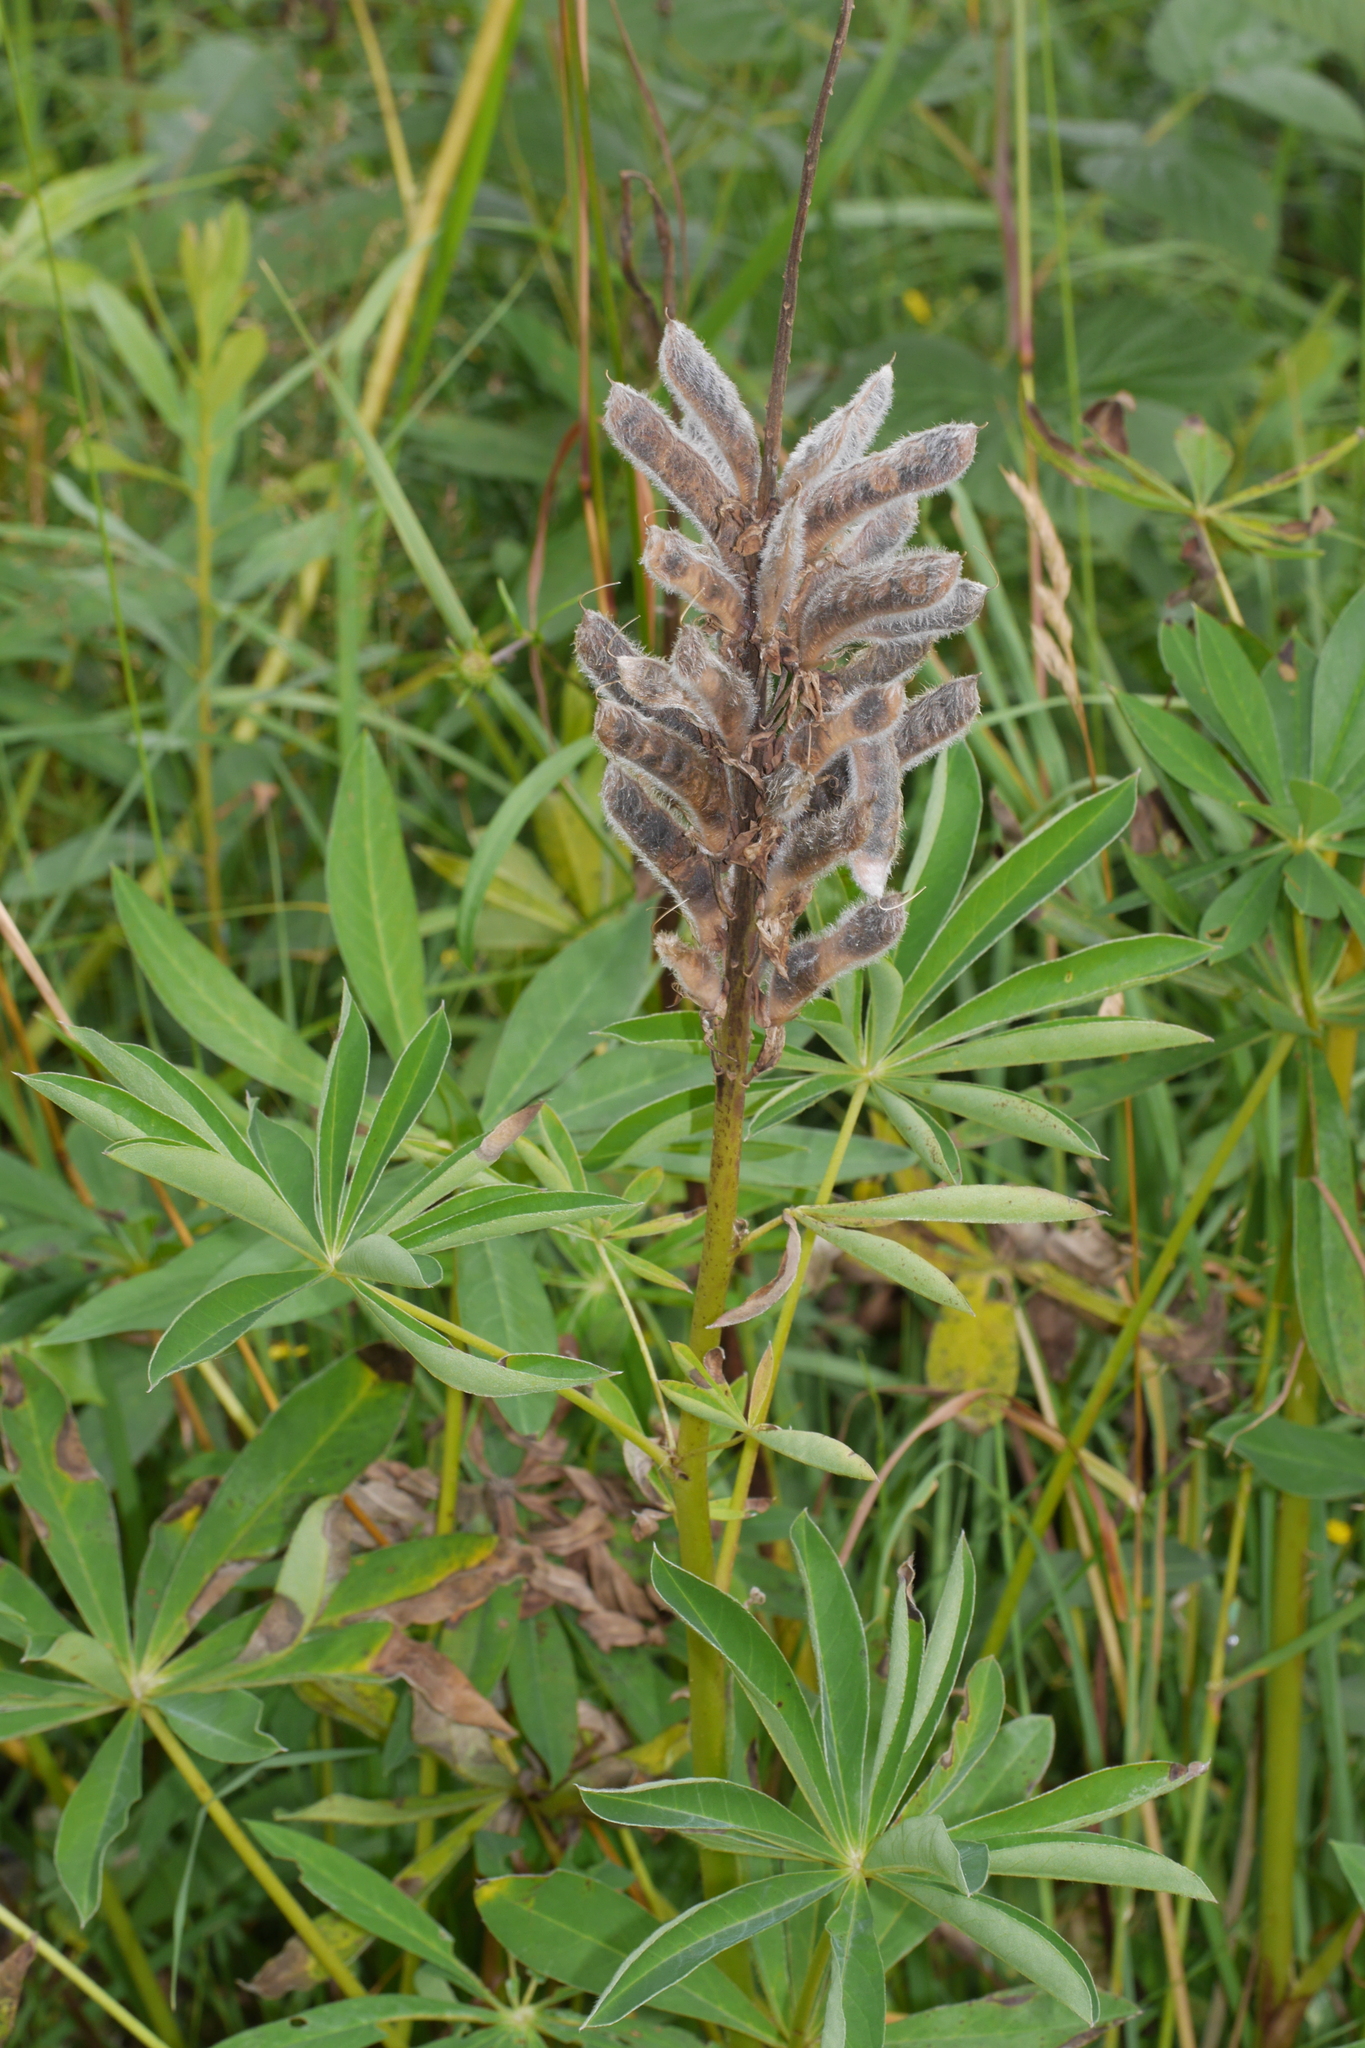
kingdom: Plantae
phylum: Tracheophyta
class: Magnoliopsida
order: Fabales
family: Fabaceae
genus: Lupinus
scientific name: Lupinus polyphyllus
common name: Garden lupin
